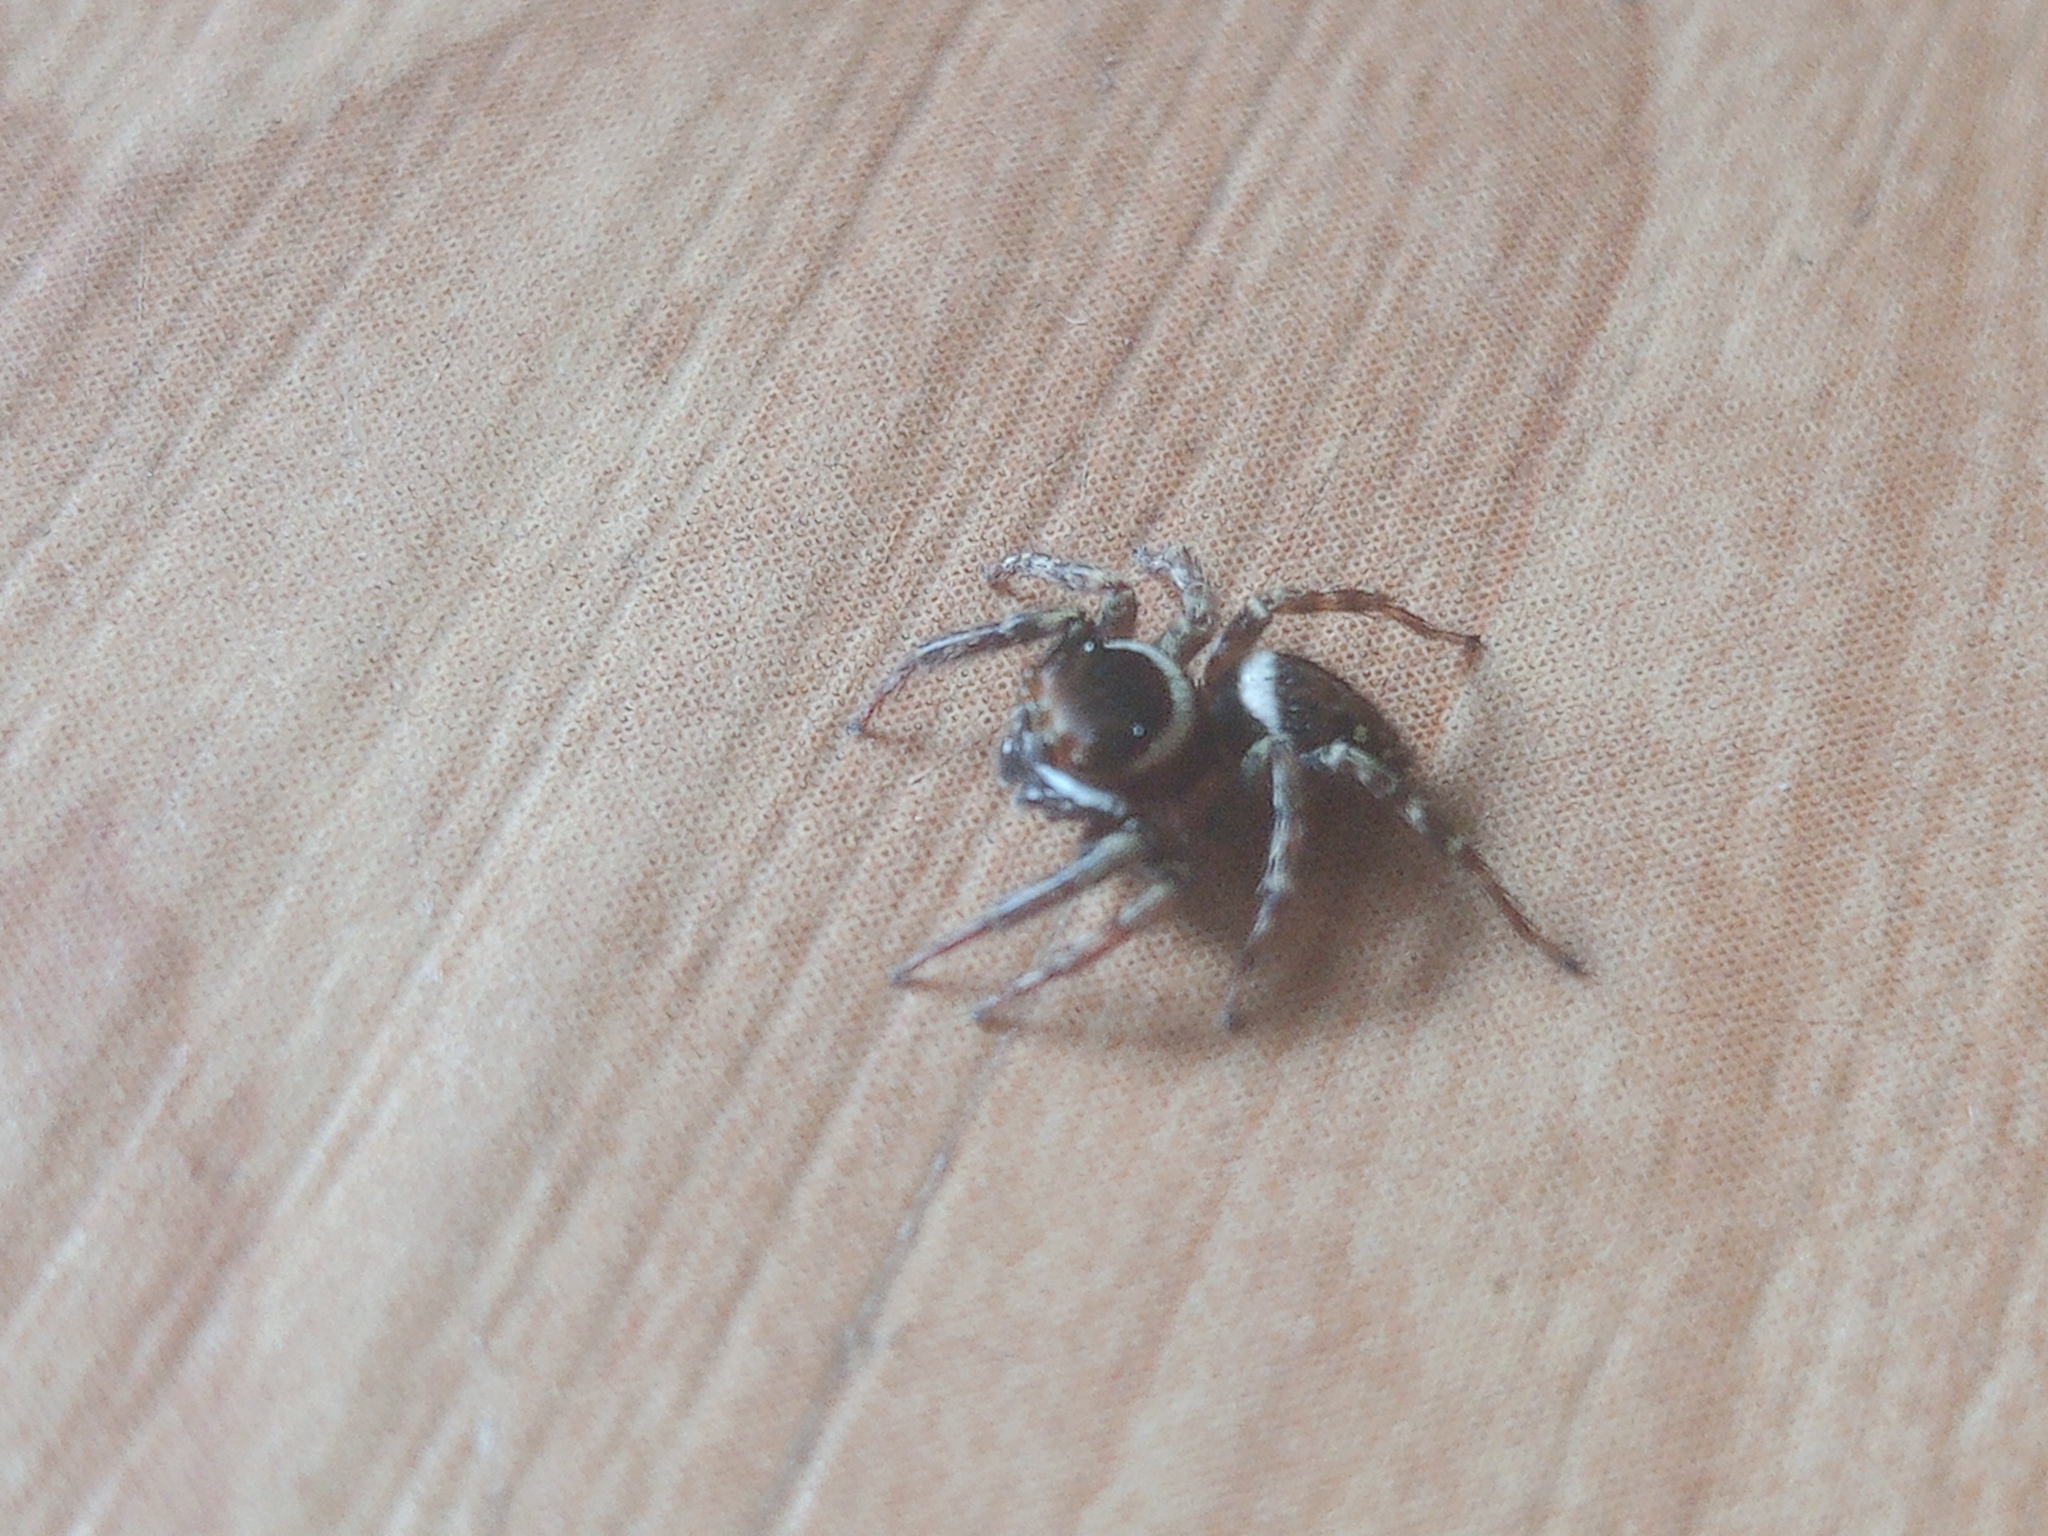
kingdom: Animalia
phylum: Arthropoda
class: Arachnida
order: Araneae
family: Salticidae
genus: Hasarius
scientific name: Hasarius adansoni
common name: Jumping spider
